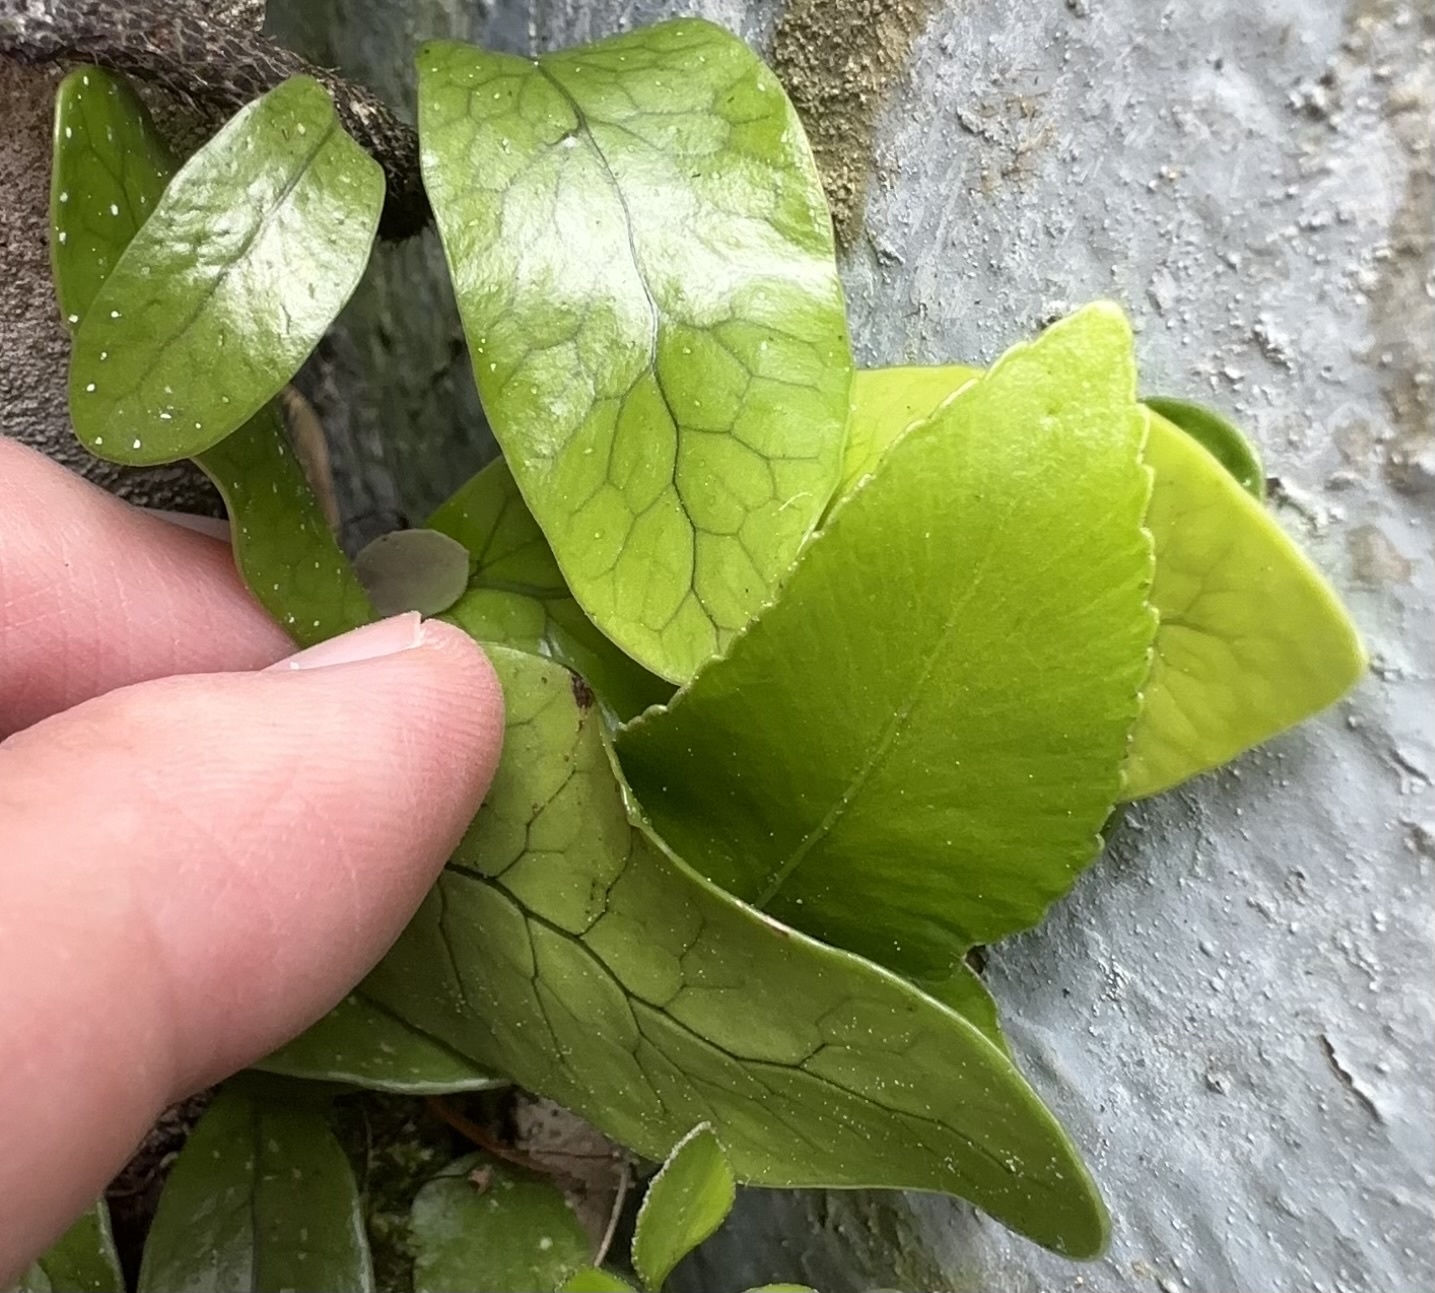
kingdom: Plantae
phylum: Tracheophyta
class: Polypodiopsida
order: Polypodiales
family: Polypodiaceae
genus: Lecanopteris
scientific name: Lecanopteris pustulata
